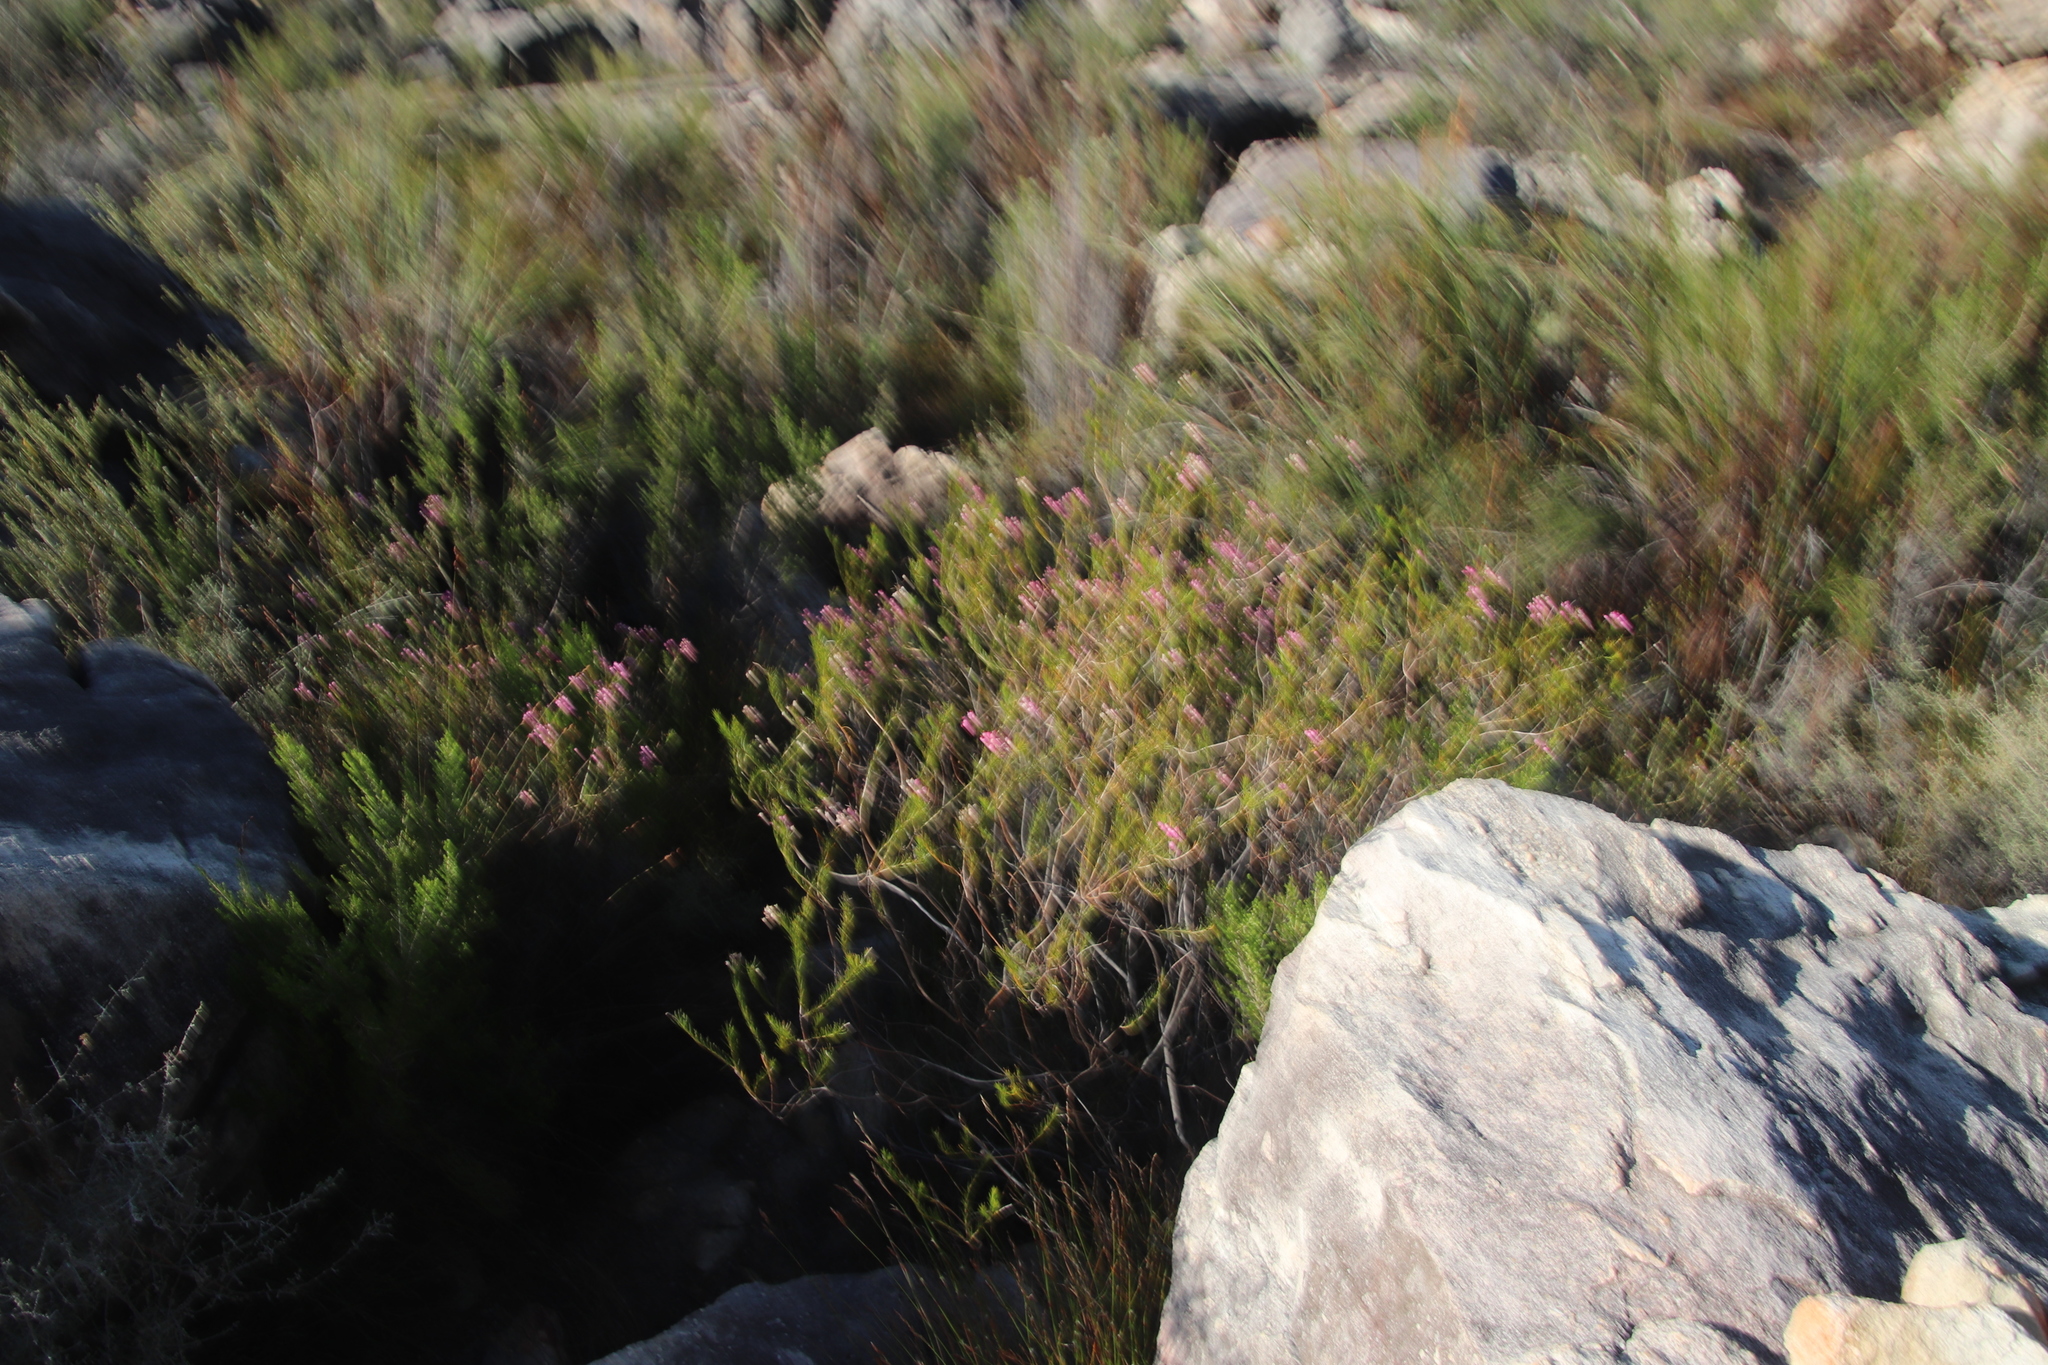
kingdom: Plantae
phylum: Tracheophyta
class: Magnoliopsida
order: Ericales
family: Ericaceae
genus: Erica
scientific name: Erica inflata
